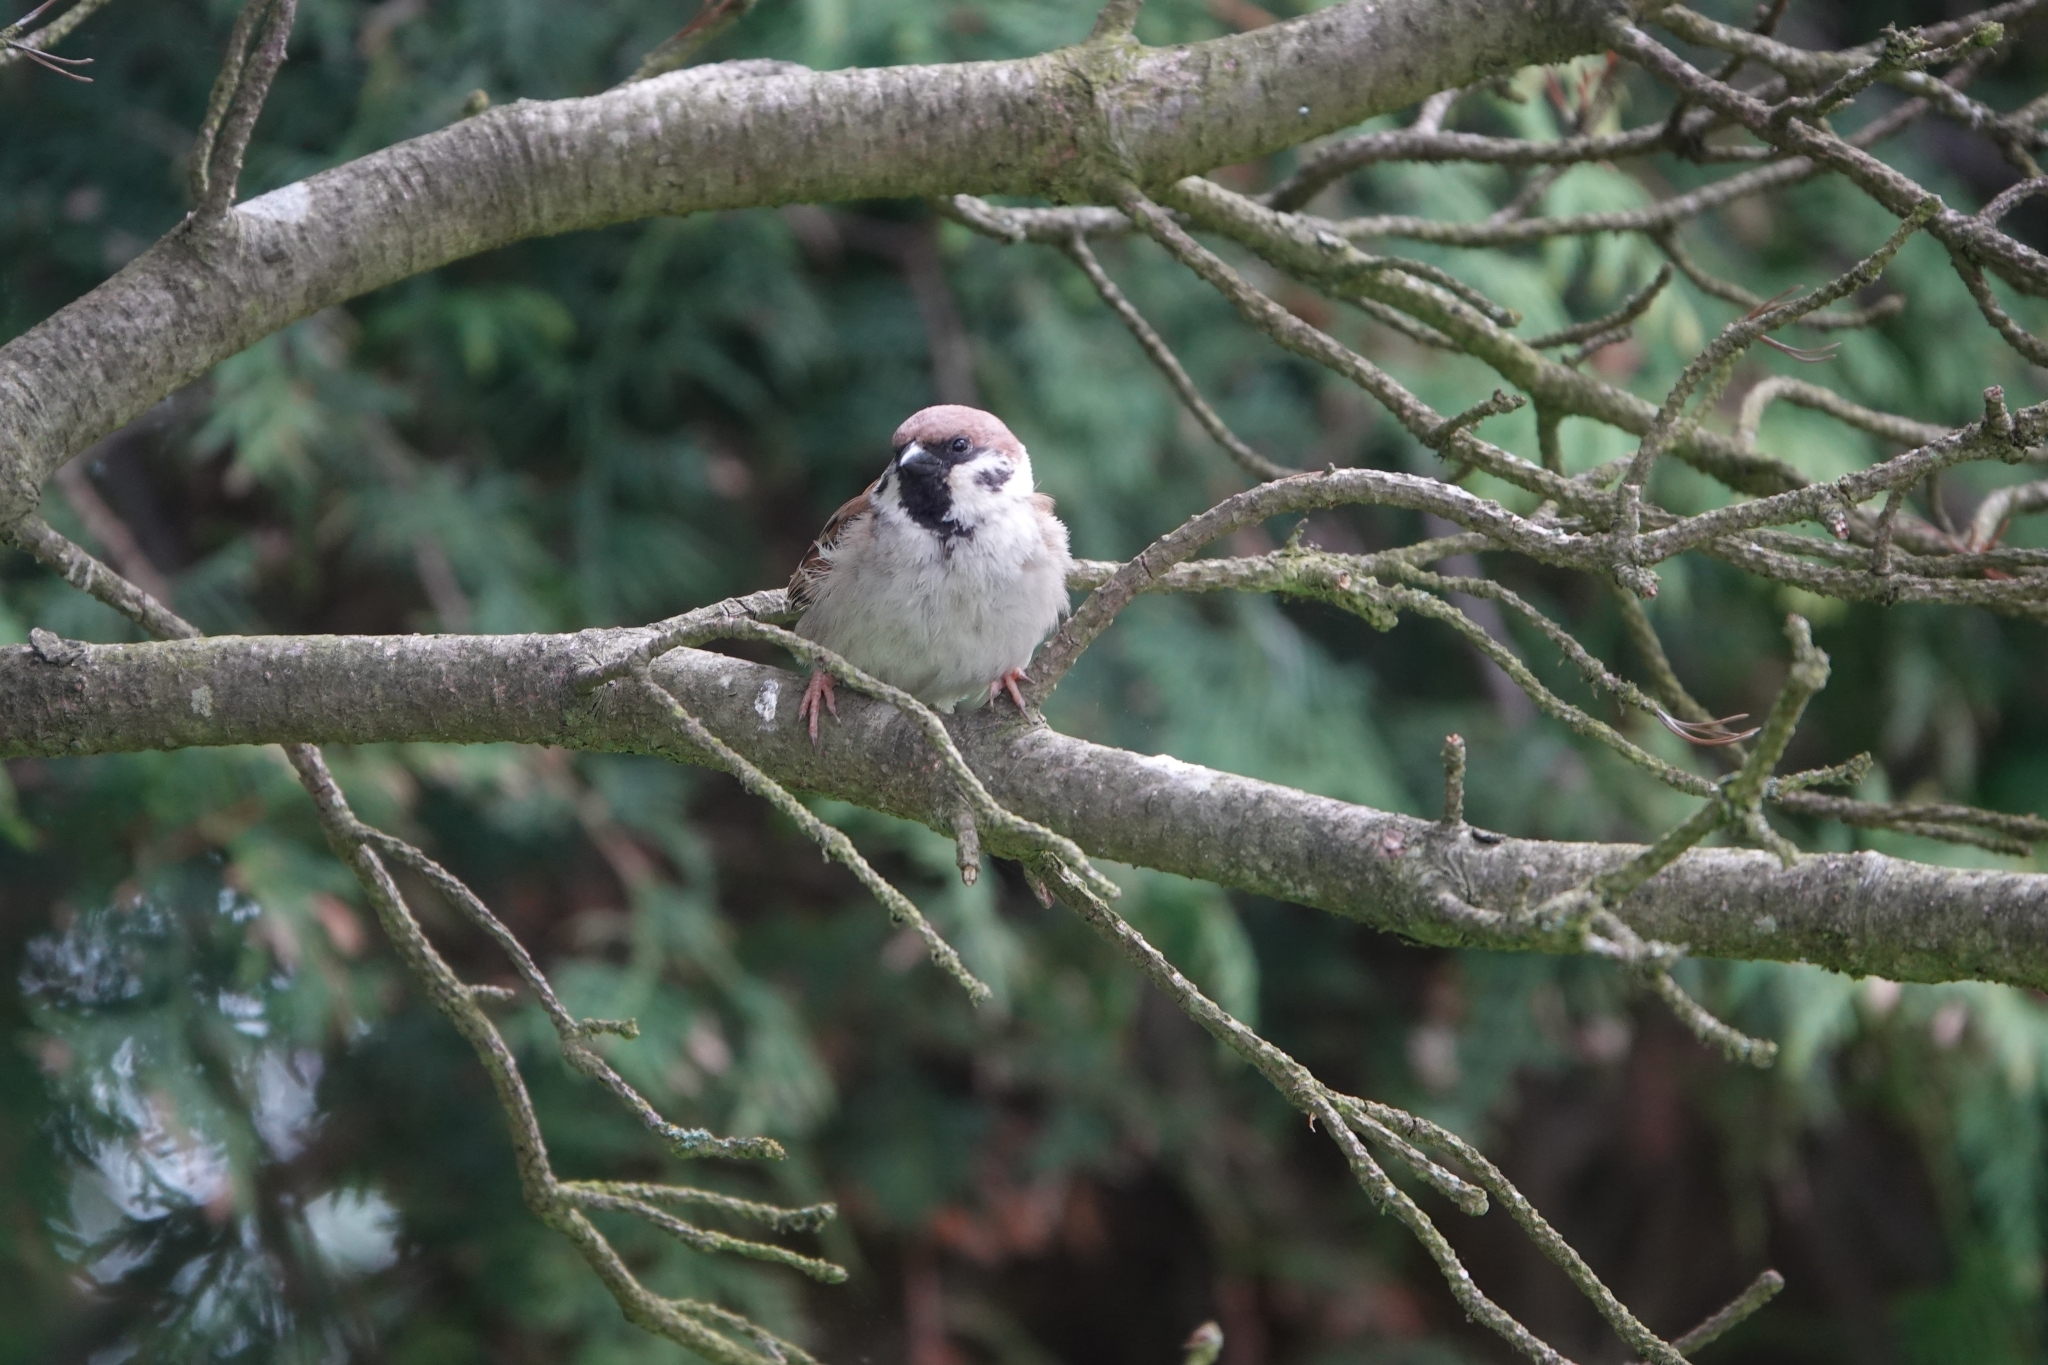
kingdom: Animalia
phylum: Chordata
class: Aves
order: Passeriformes
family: Passeridae
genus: Passer
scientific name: Passer montanus
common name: Eurasian tree sparrow
